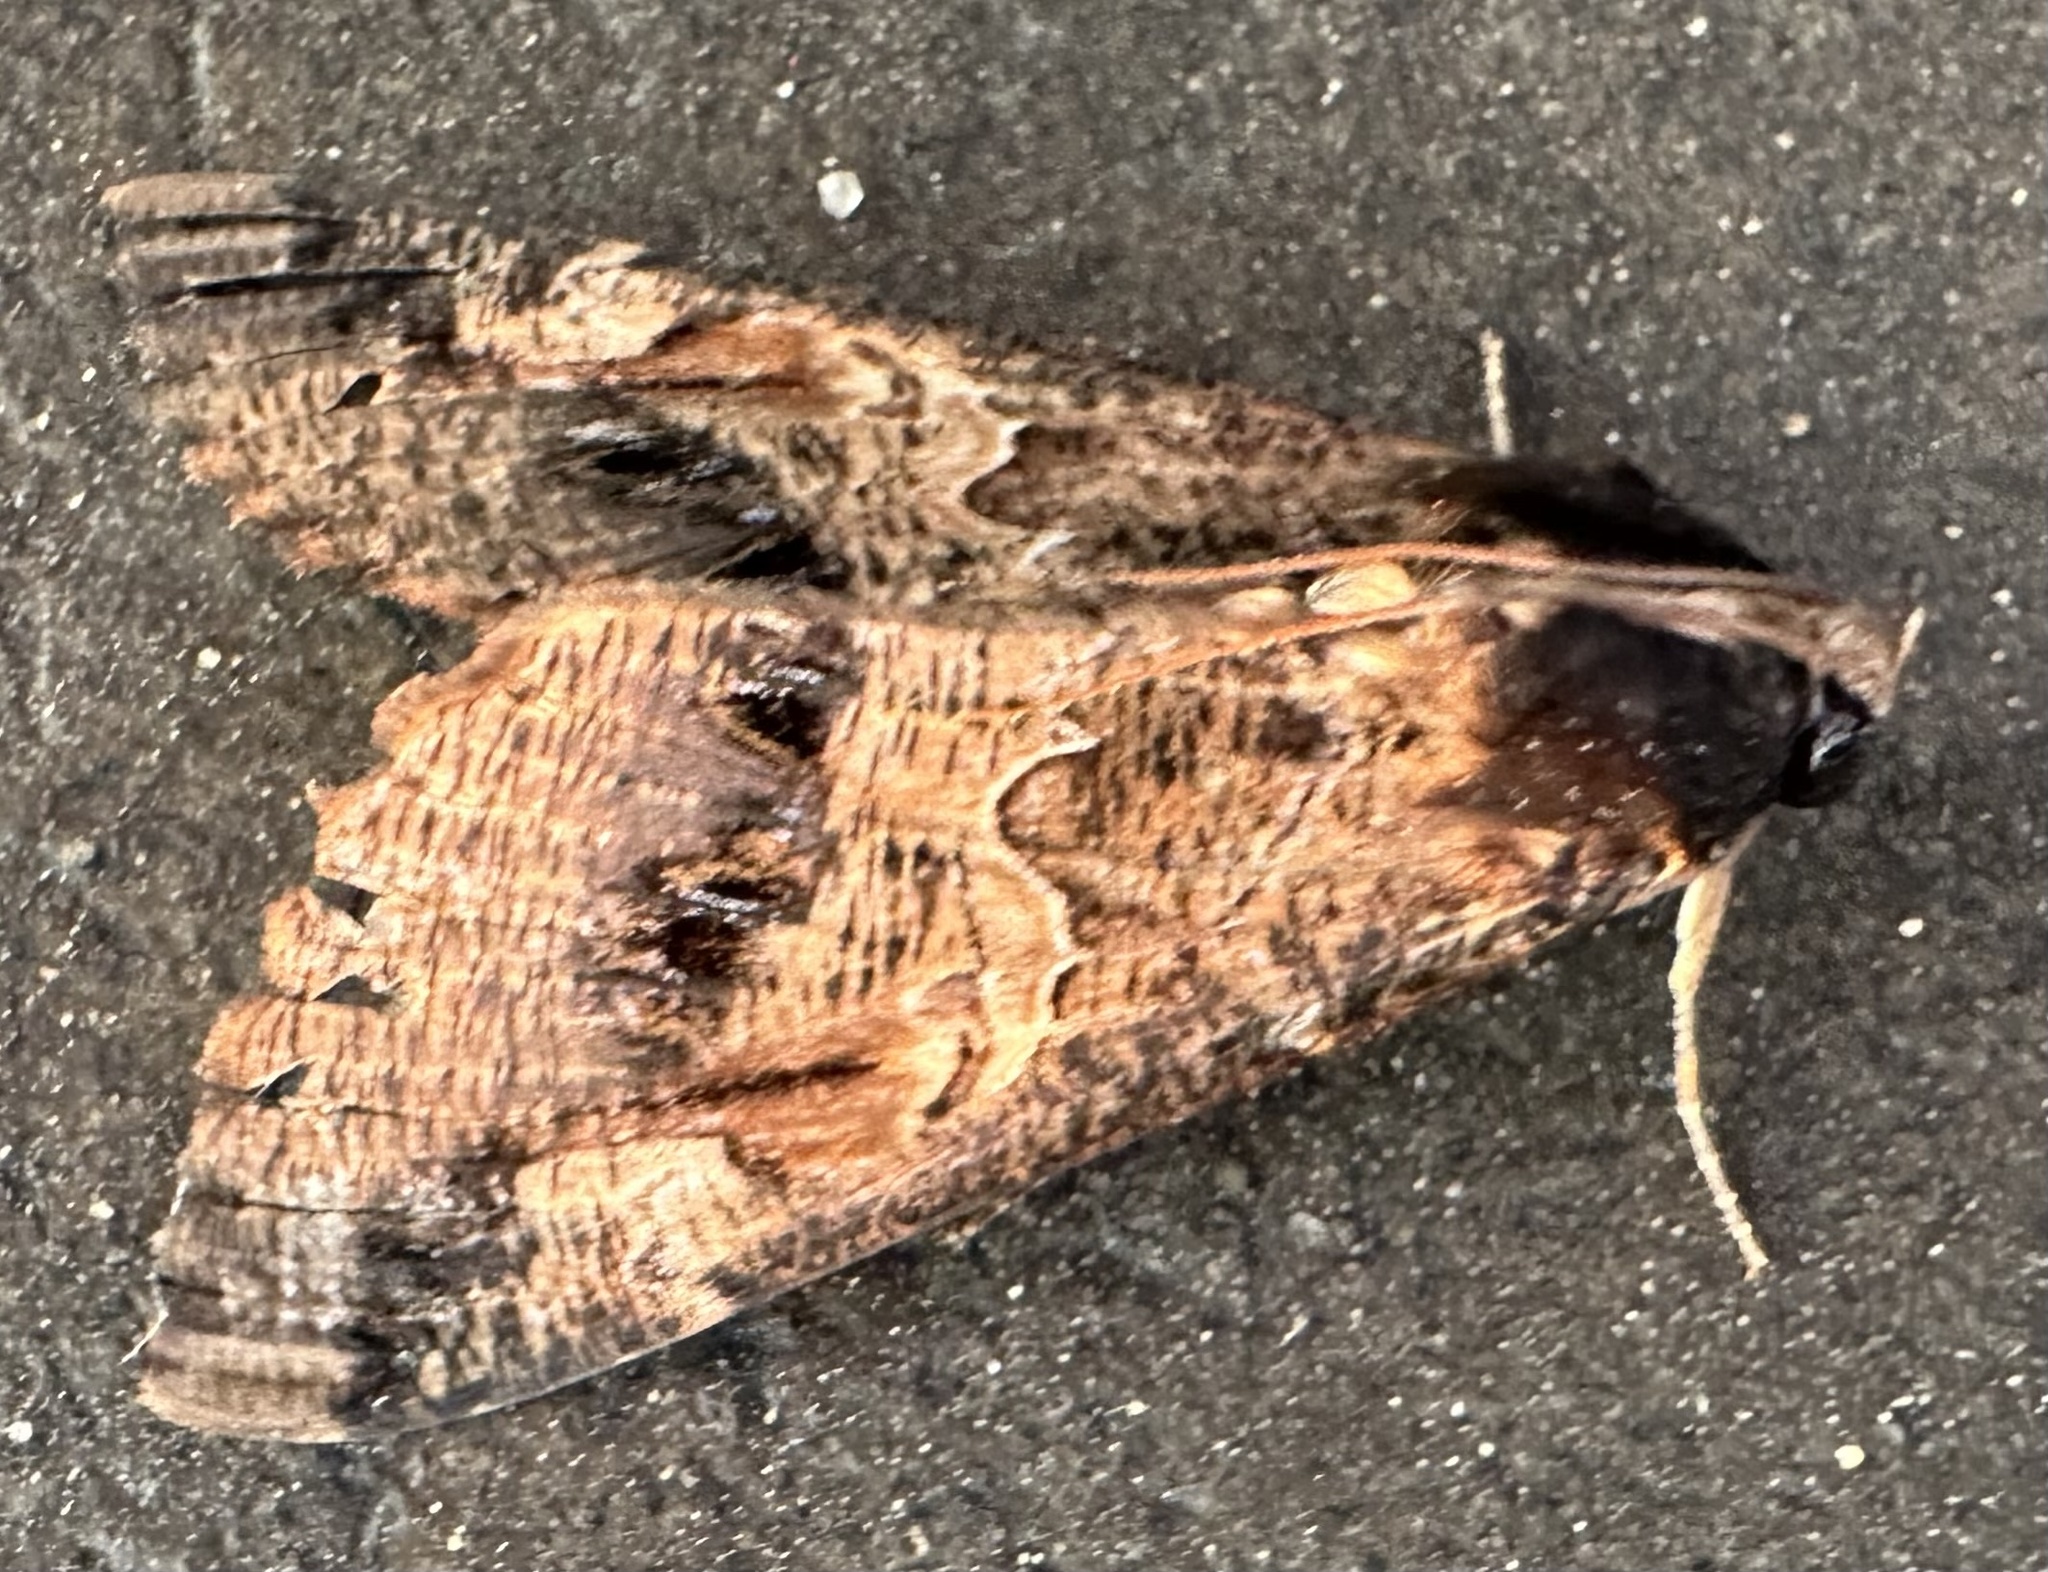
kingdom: Animalia
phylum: Arthropoda
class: Insecta
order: Lepidoptera
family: Erebidae
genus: Sphingomorpha
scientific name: Sphingomorpha chlorea
